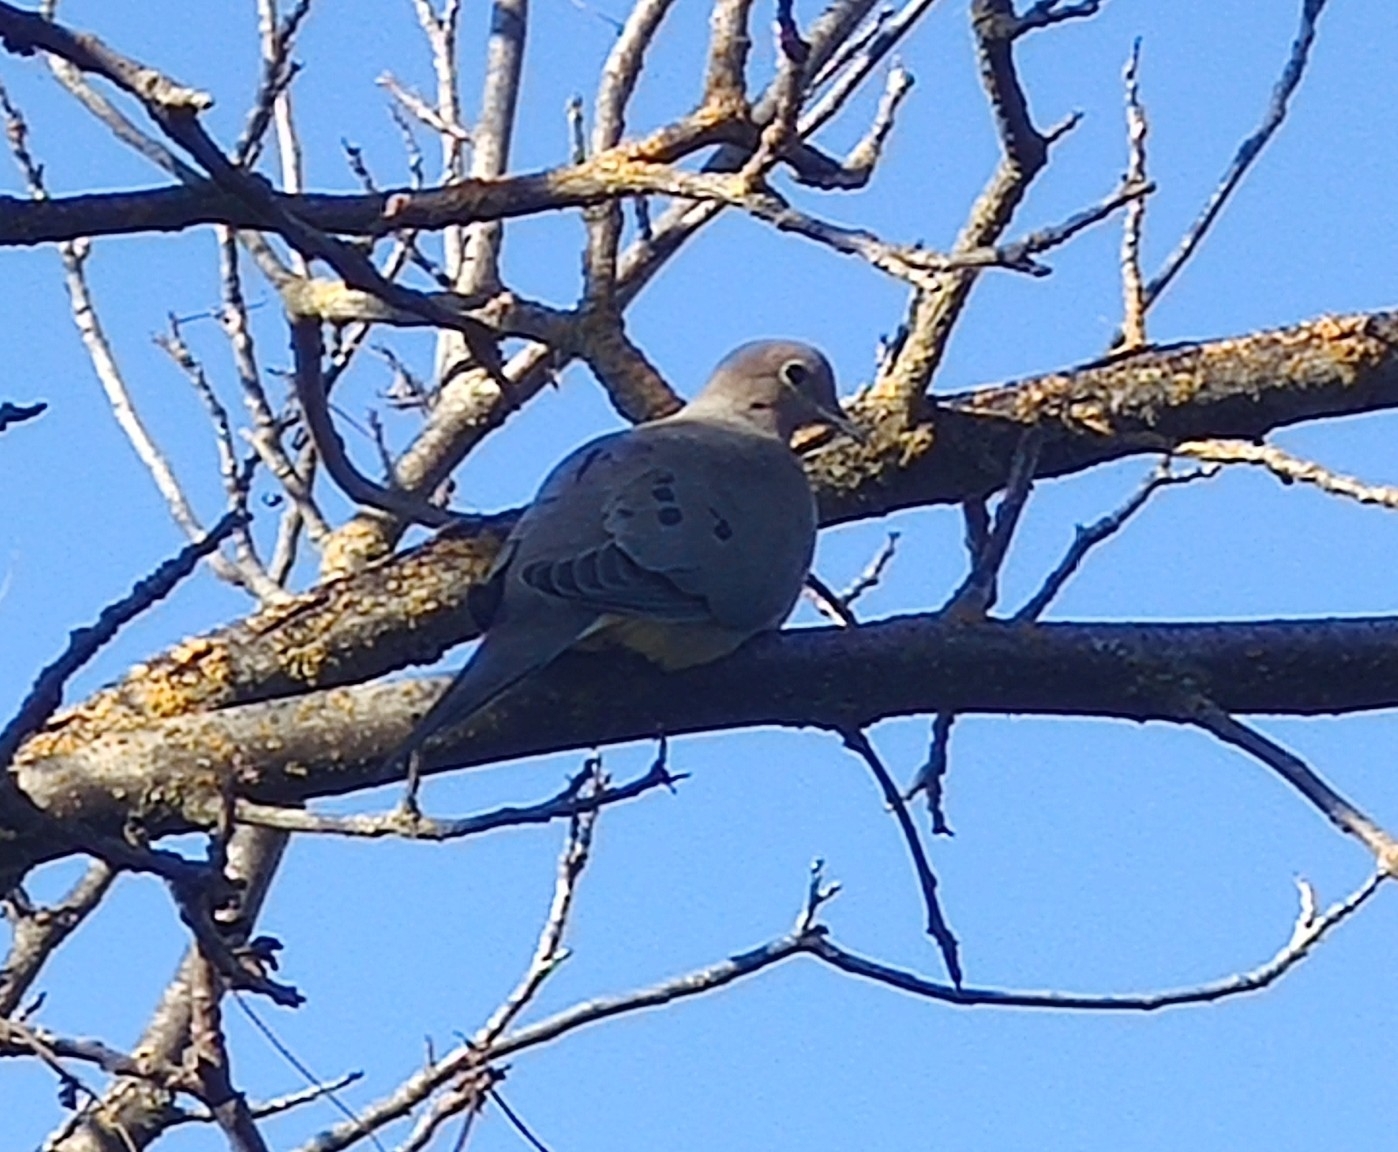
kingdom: Animalia
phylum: Chordata
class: Aves
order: Columbiformes
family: Columbidae
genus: Zenaida
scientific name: Zenaida macroura
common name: Mourning dove
